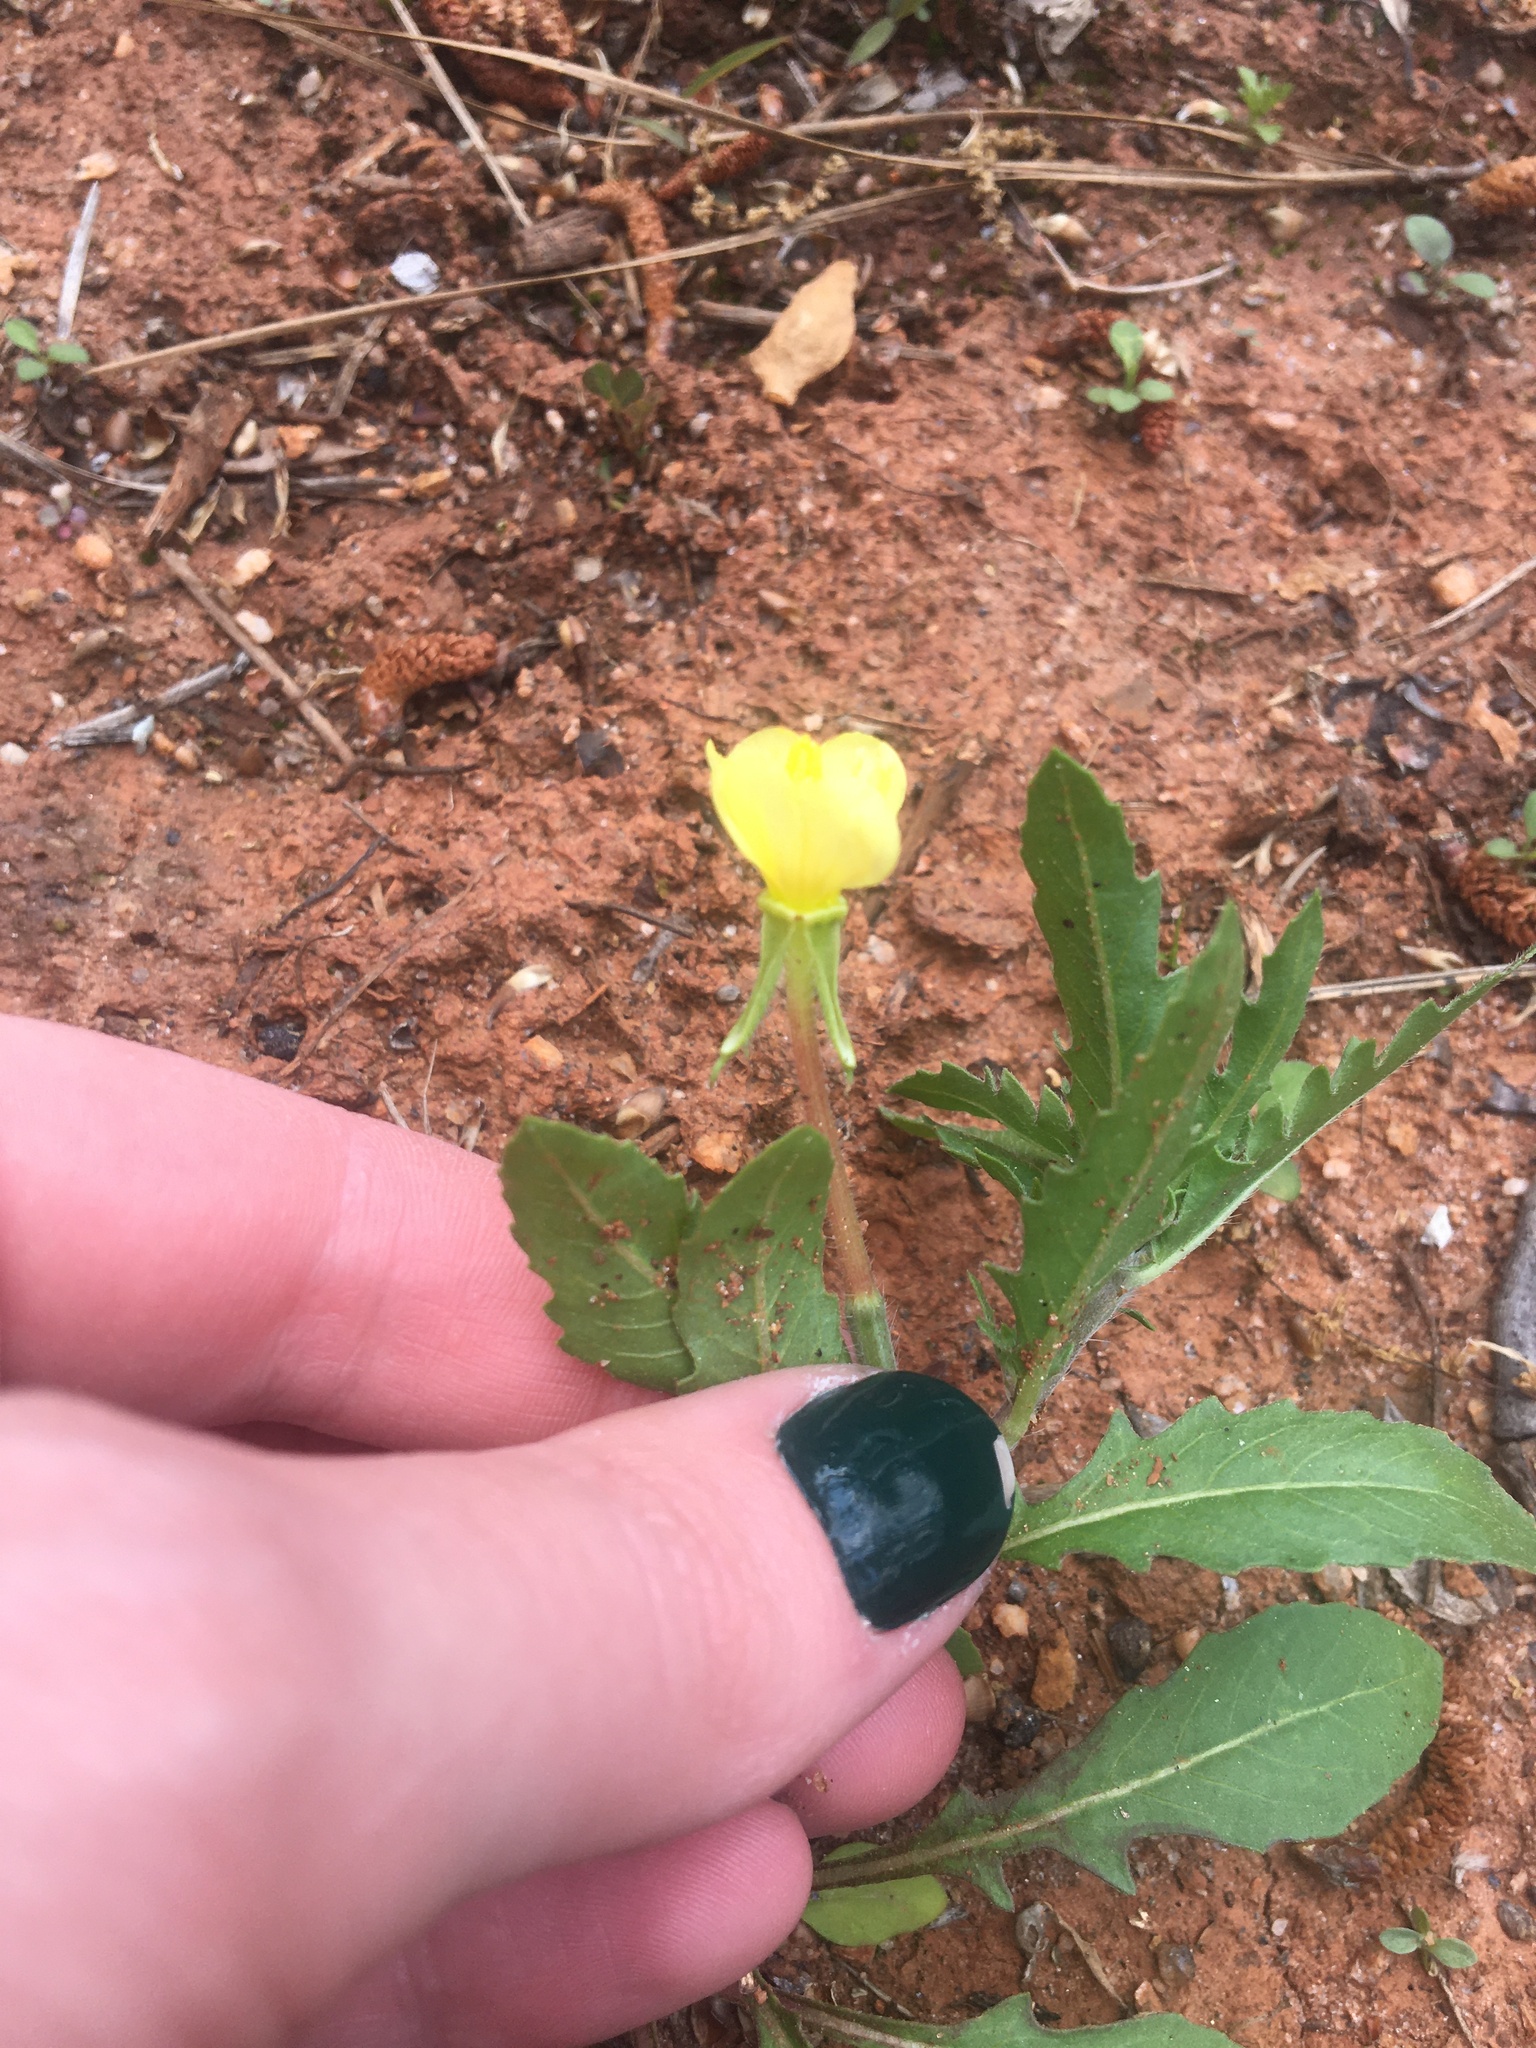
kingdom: Plantae
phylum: Tracheophyta
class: Magnoliopsida
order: Myrtales
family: Onagraceae
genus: Oenothera
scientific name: Oenothera laciniata
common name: Cut-leaved evening-primrose
